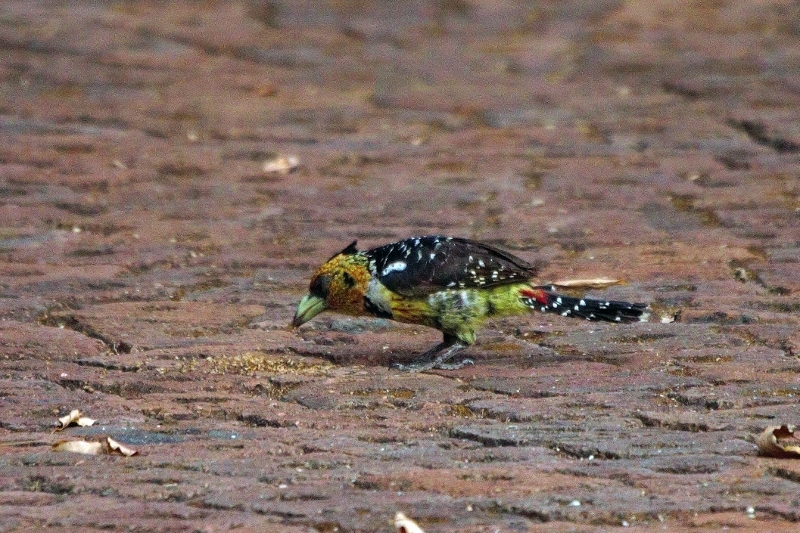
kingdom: Animalia
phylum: Chordata
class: Aves
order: Piciformes
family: Lybiidae
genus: Trachyphonus
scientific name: Trachyphonus vaillantii
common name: Crested barbet
